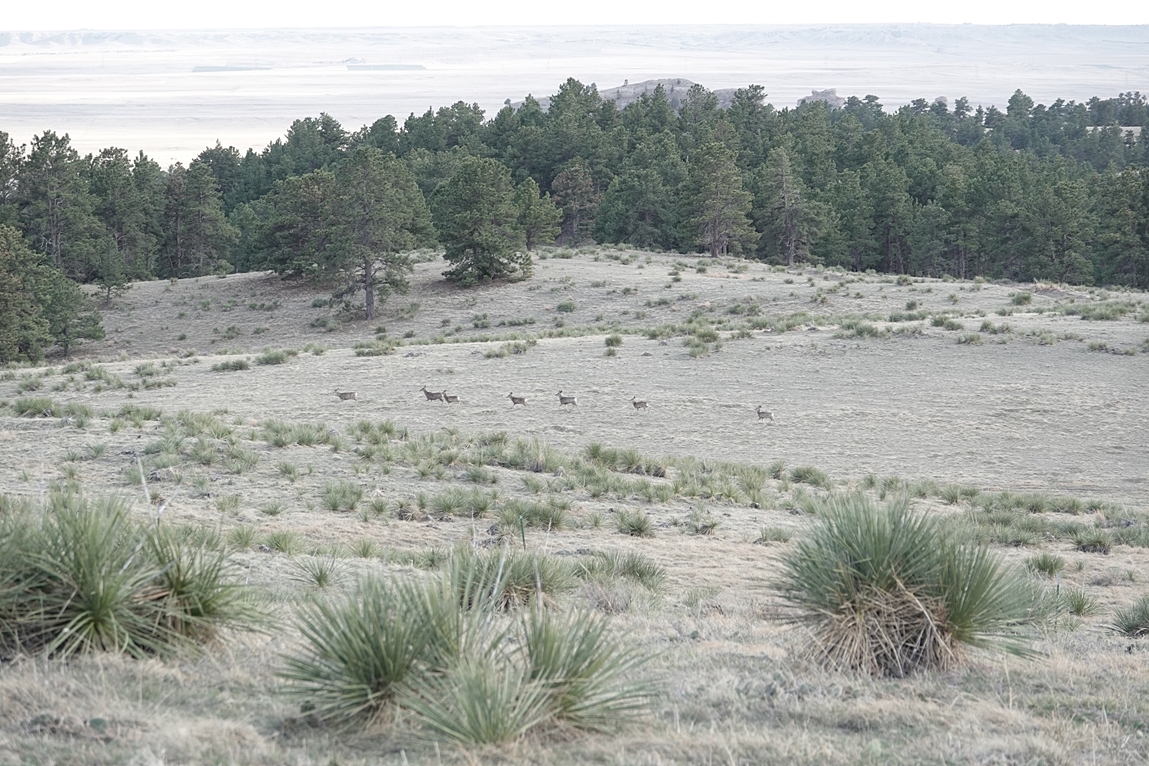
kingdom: Animalia
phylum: Chordata
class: Mammalia
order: Artiodactyla
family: Cervidae
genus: Odocoileus
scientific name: Odocoileus hemionus
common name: Mule deer
